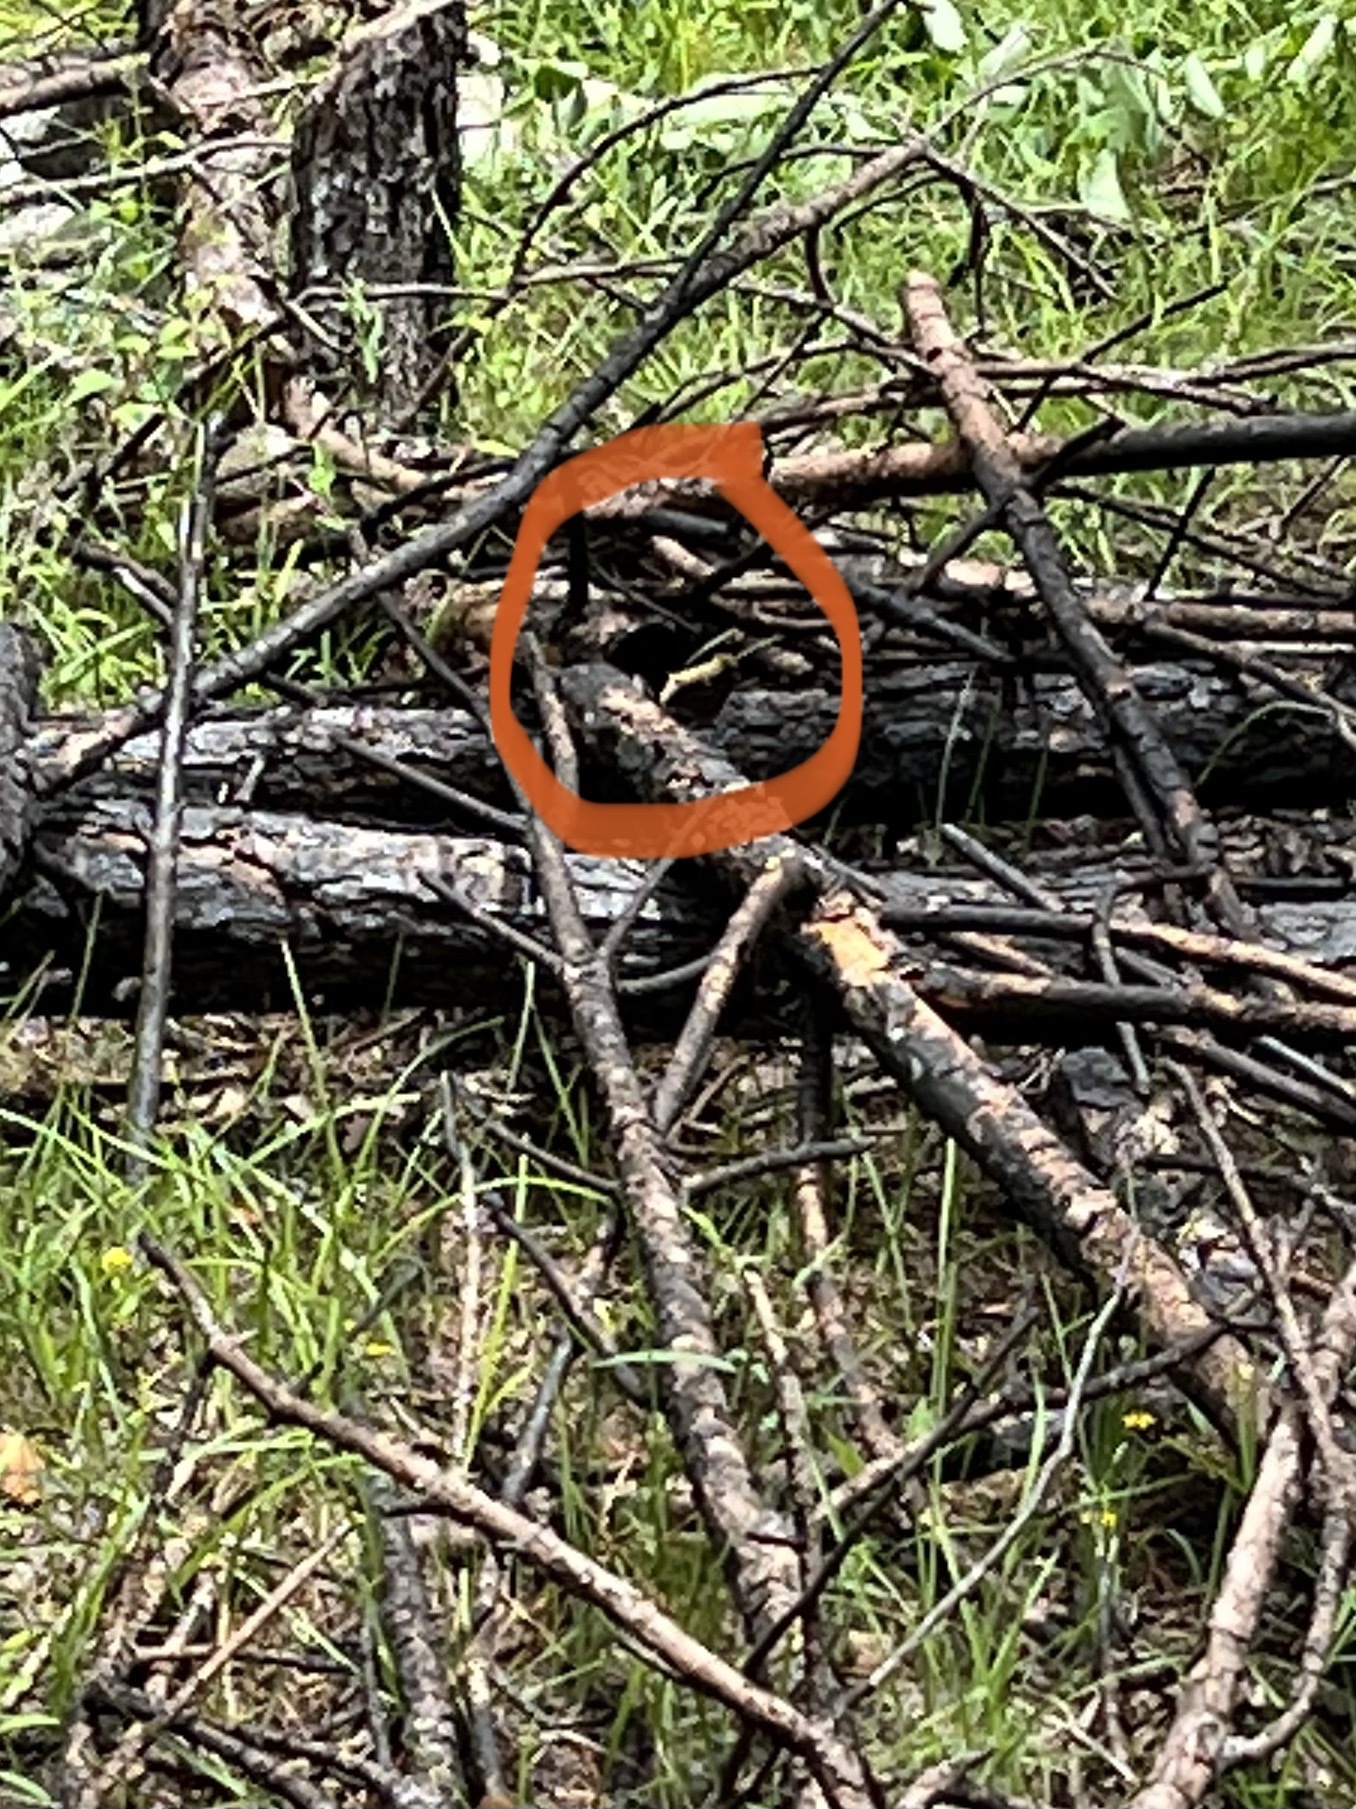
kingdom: Animalia
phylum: Arthropoda
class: Insecta
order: Lepidoptera
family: Nymphalidae
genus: Nymphalis
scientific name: Nymphalis antiopa
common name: Camberwell beauty
